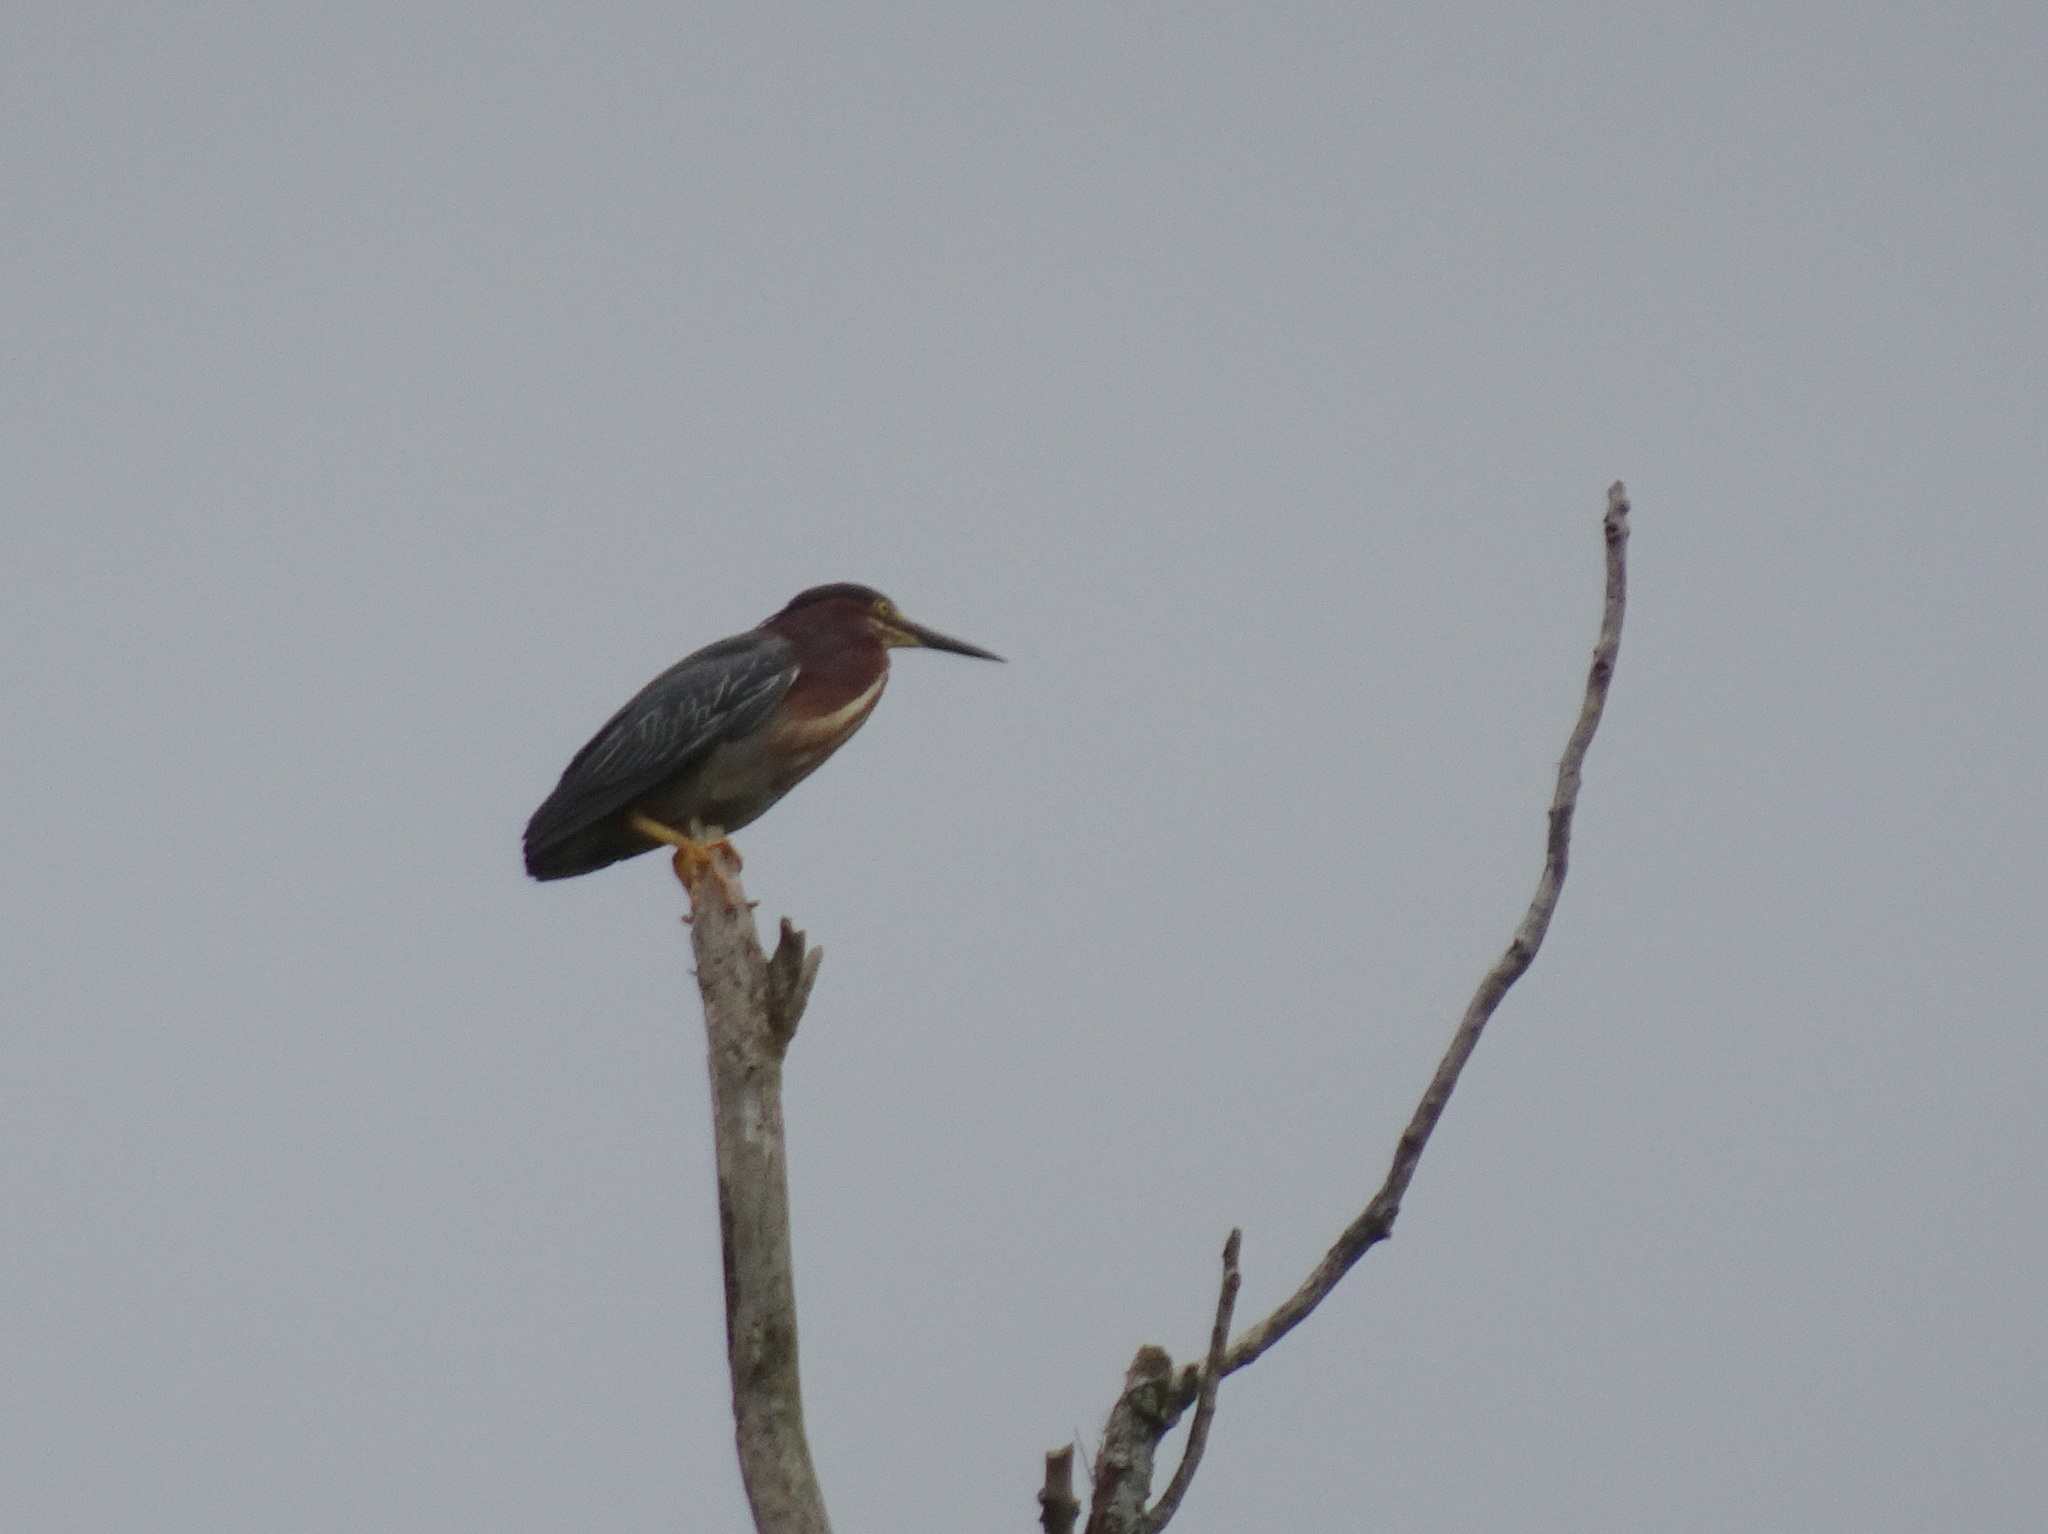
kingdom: Animalia
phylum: Chordata
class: Aves
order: Pelecaniformes
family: Ardeidae
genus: Butorides
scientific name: Butorides virescens
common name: Green heron
